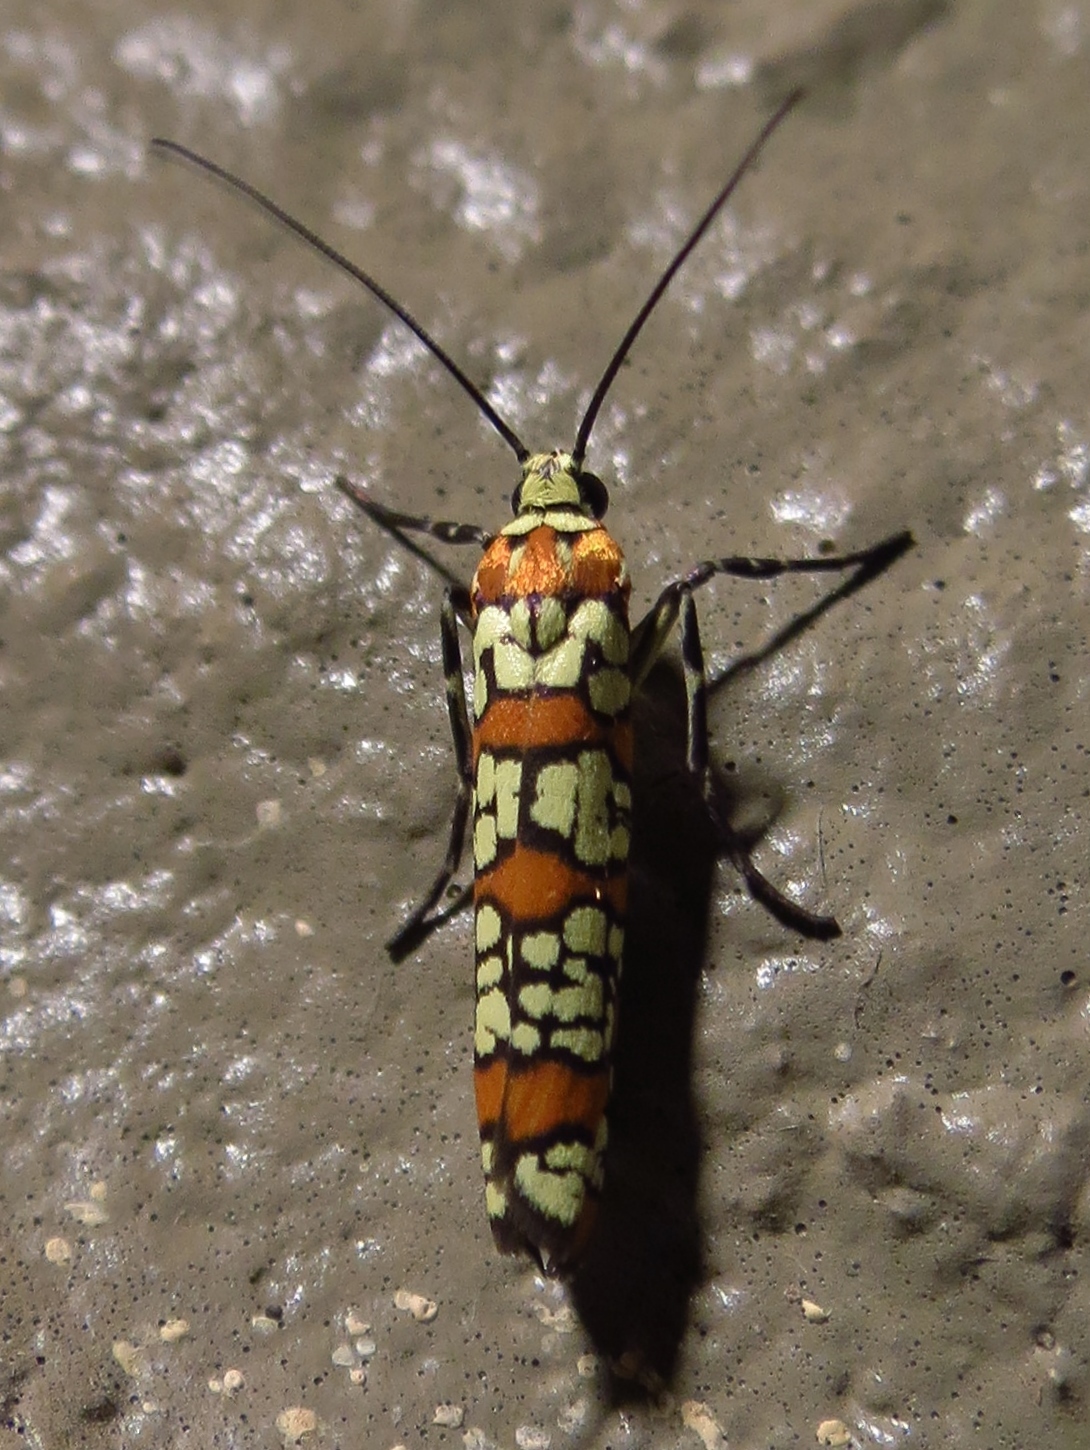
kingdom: Animalia
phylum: Arthropoda
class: Insecta
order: Lepidoptera
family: Attevidae
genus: Atteva
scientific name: Atteva punctella
